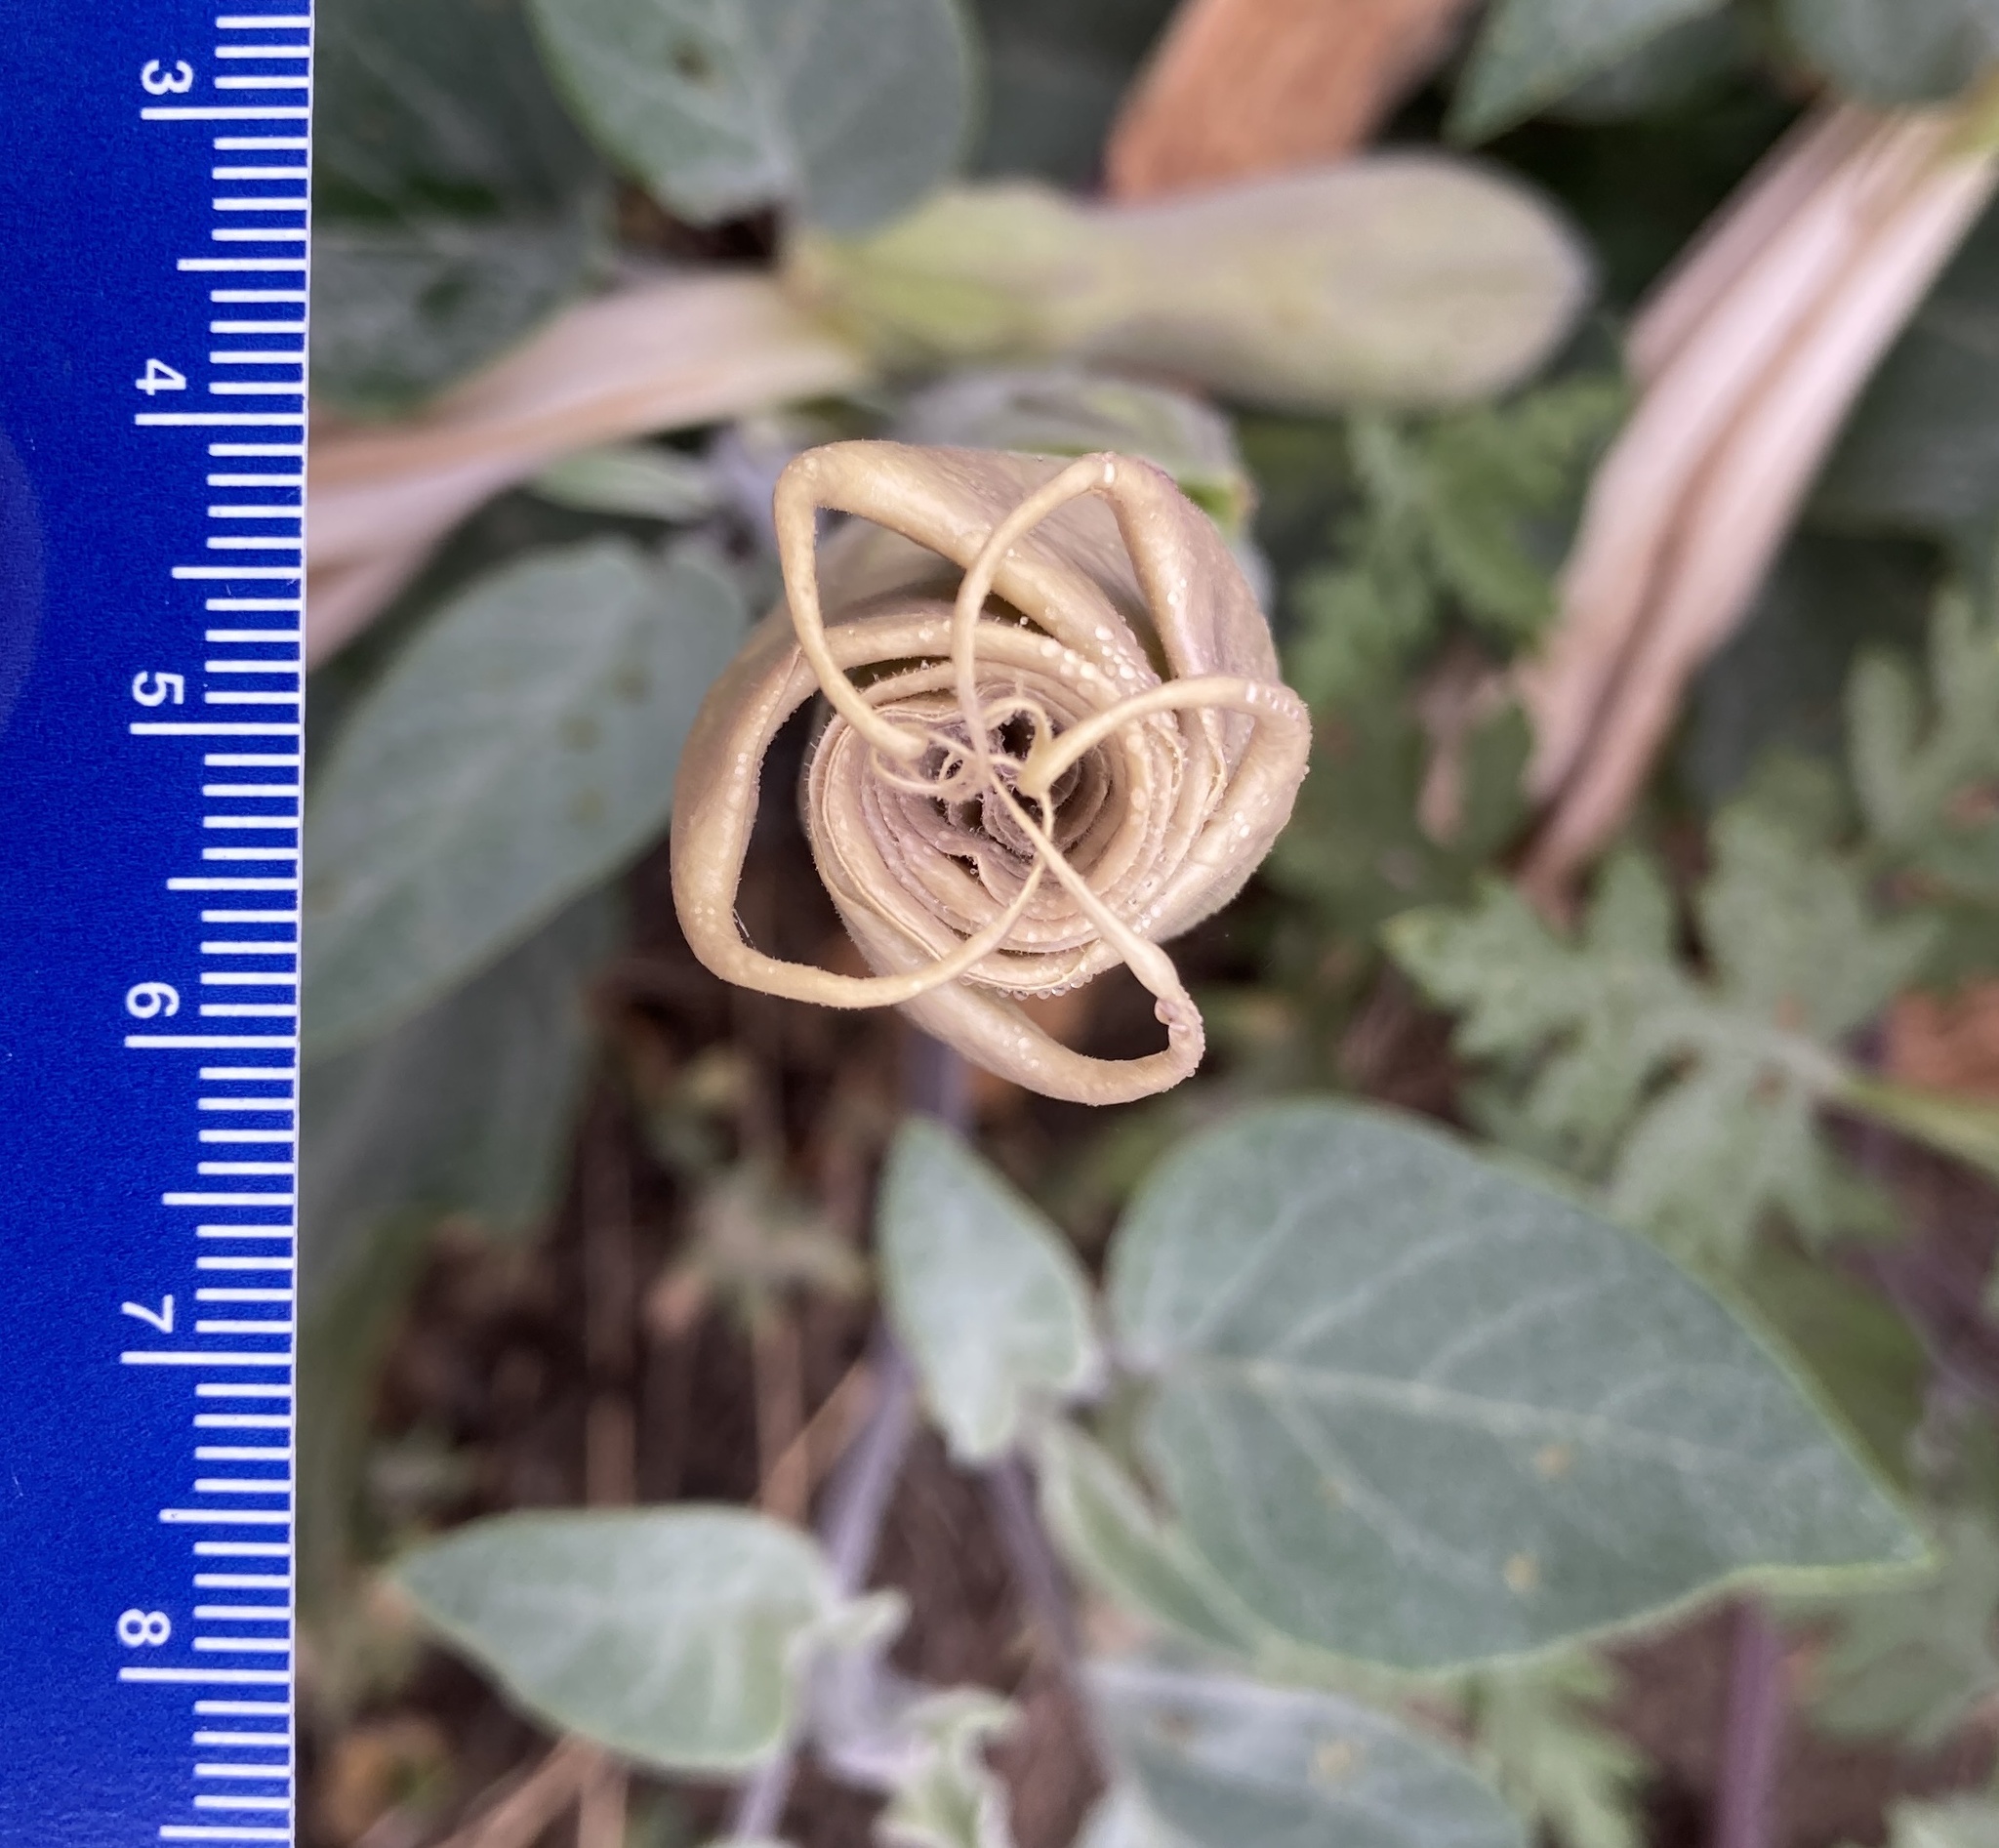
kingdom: Plantae
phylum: Tracheophyta
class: Magnoliopsida
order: Solanales
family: Solanaceae
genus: Datura
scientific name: Datura wrightii
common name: Sacred thorn-apple
